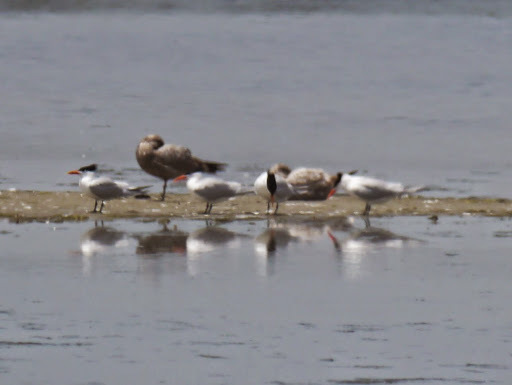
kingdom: Animalia
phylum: Chordata
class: Aves
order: Charadriiformes
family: Laridae
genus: Thalasseus
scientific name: Thalasseus maximus
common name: Royal tern
